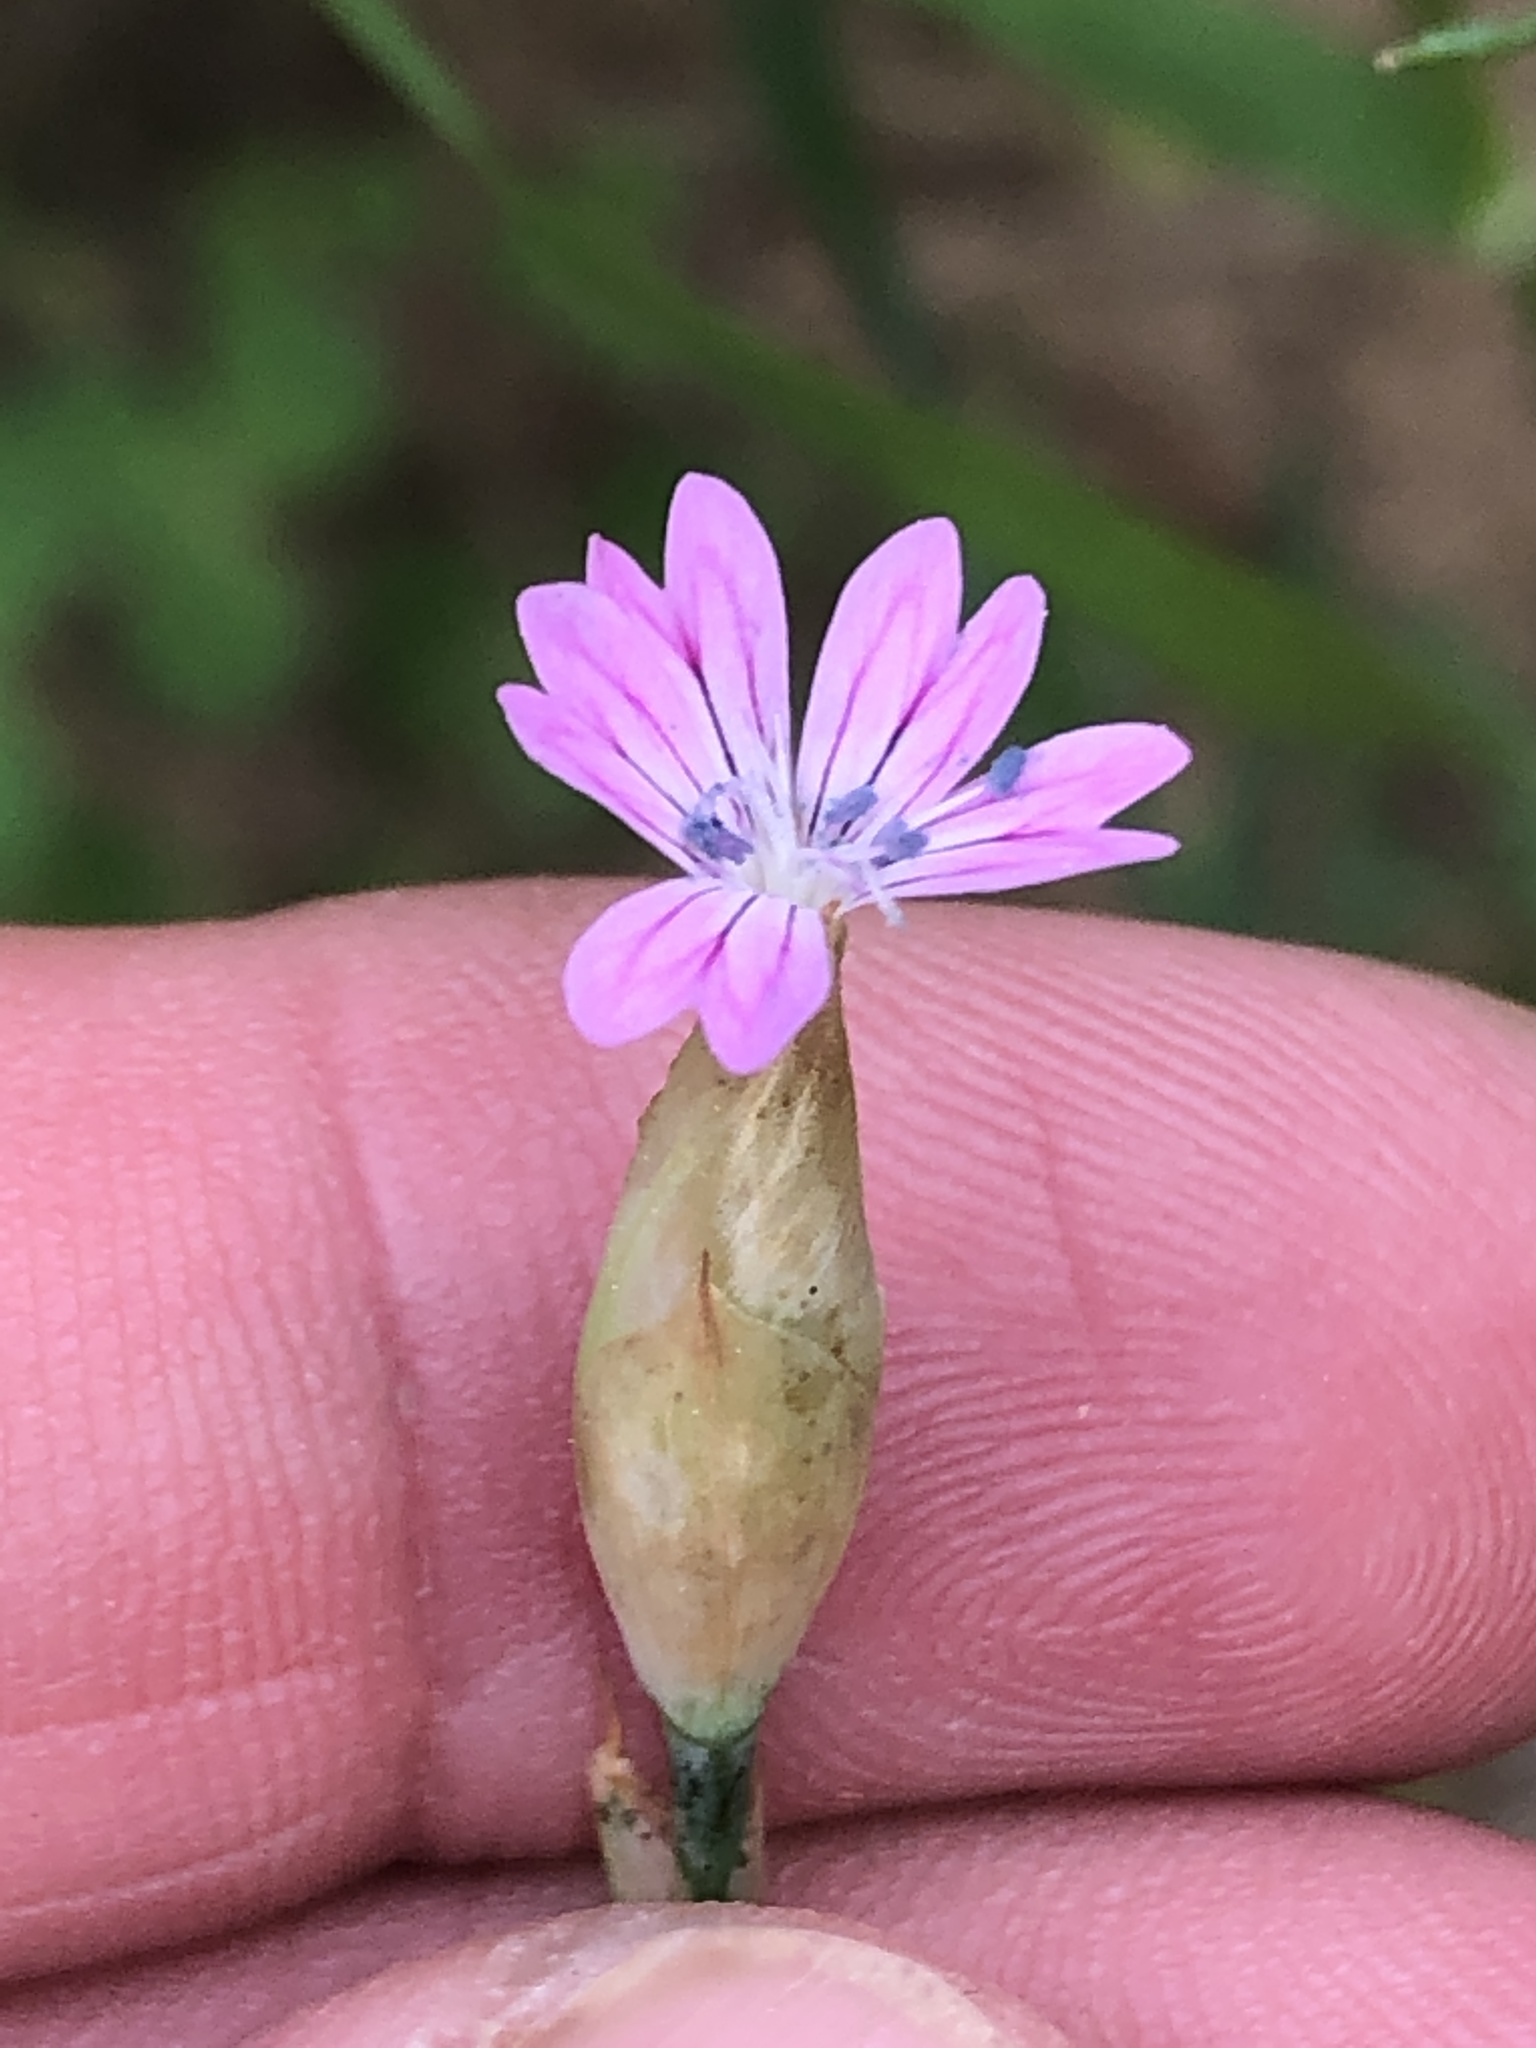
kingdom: Plantae
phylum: Tracheophyta
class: Magnoliopsida
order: Caryophyllales
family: Caryophyllaceae
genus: Petrorhagia
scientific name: Petrorhagia dubia
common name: Hairypink
